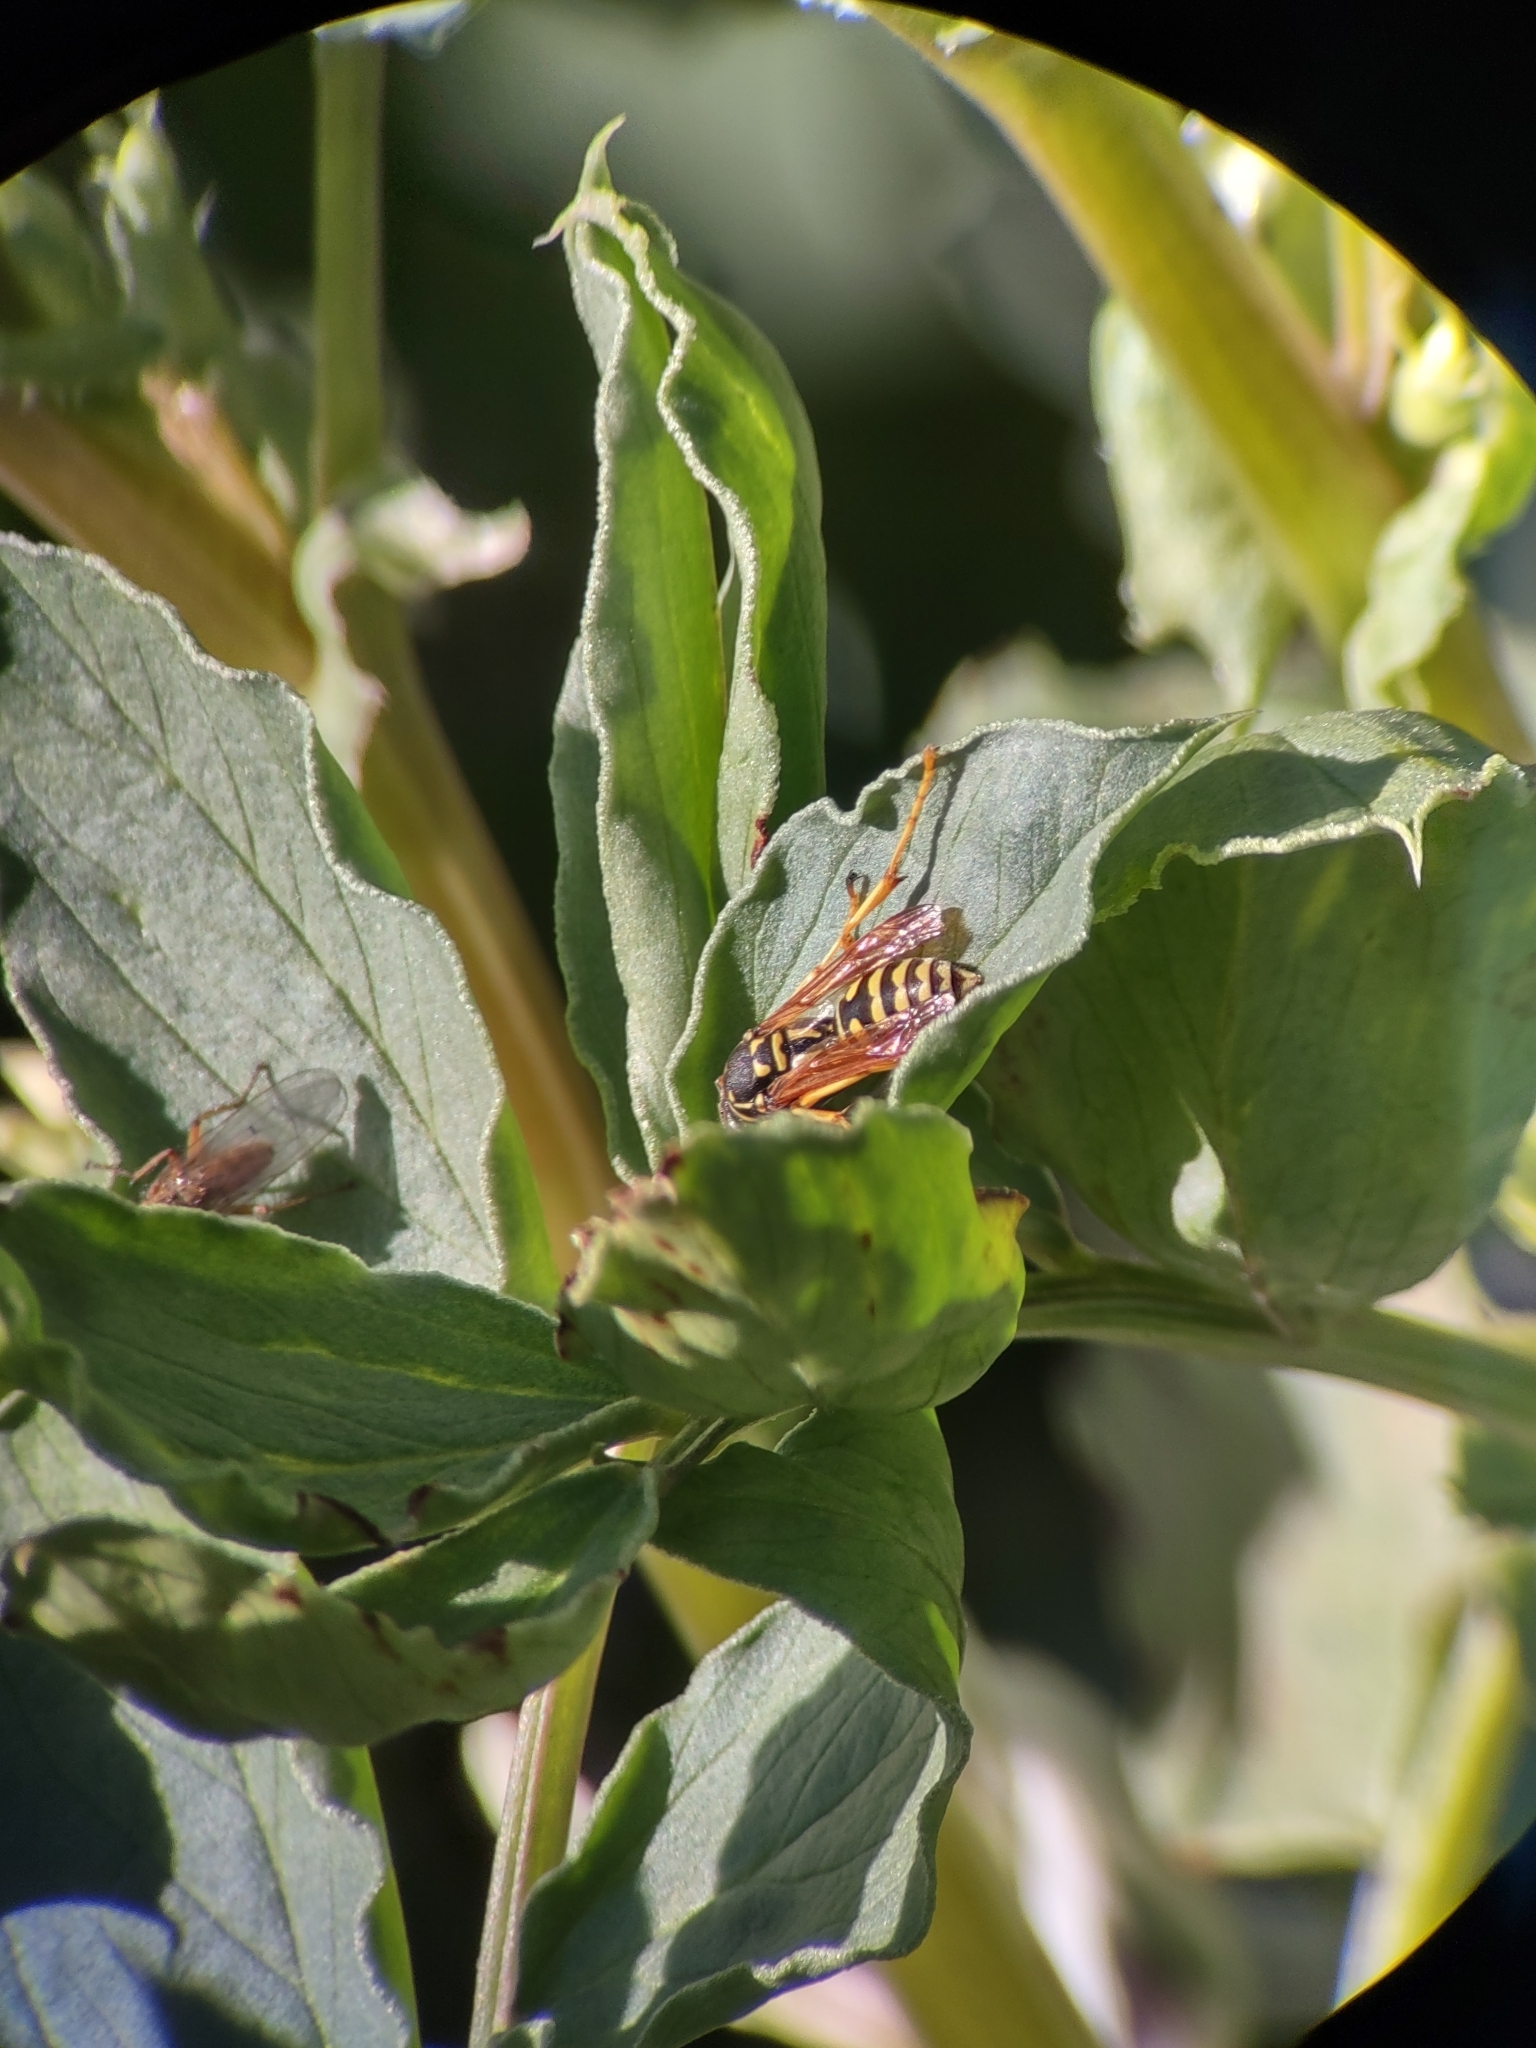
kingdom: Animalia
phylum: Arthropoda
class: Insecta
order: Hymenoptera
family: Eumenidae
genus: Polistes
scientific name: Polistes dominula
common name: Paper wasp
